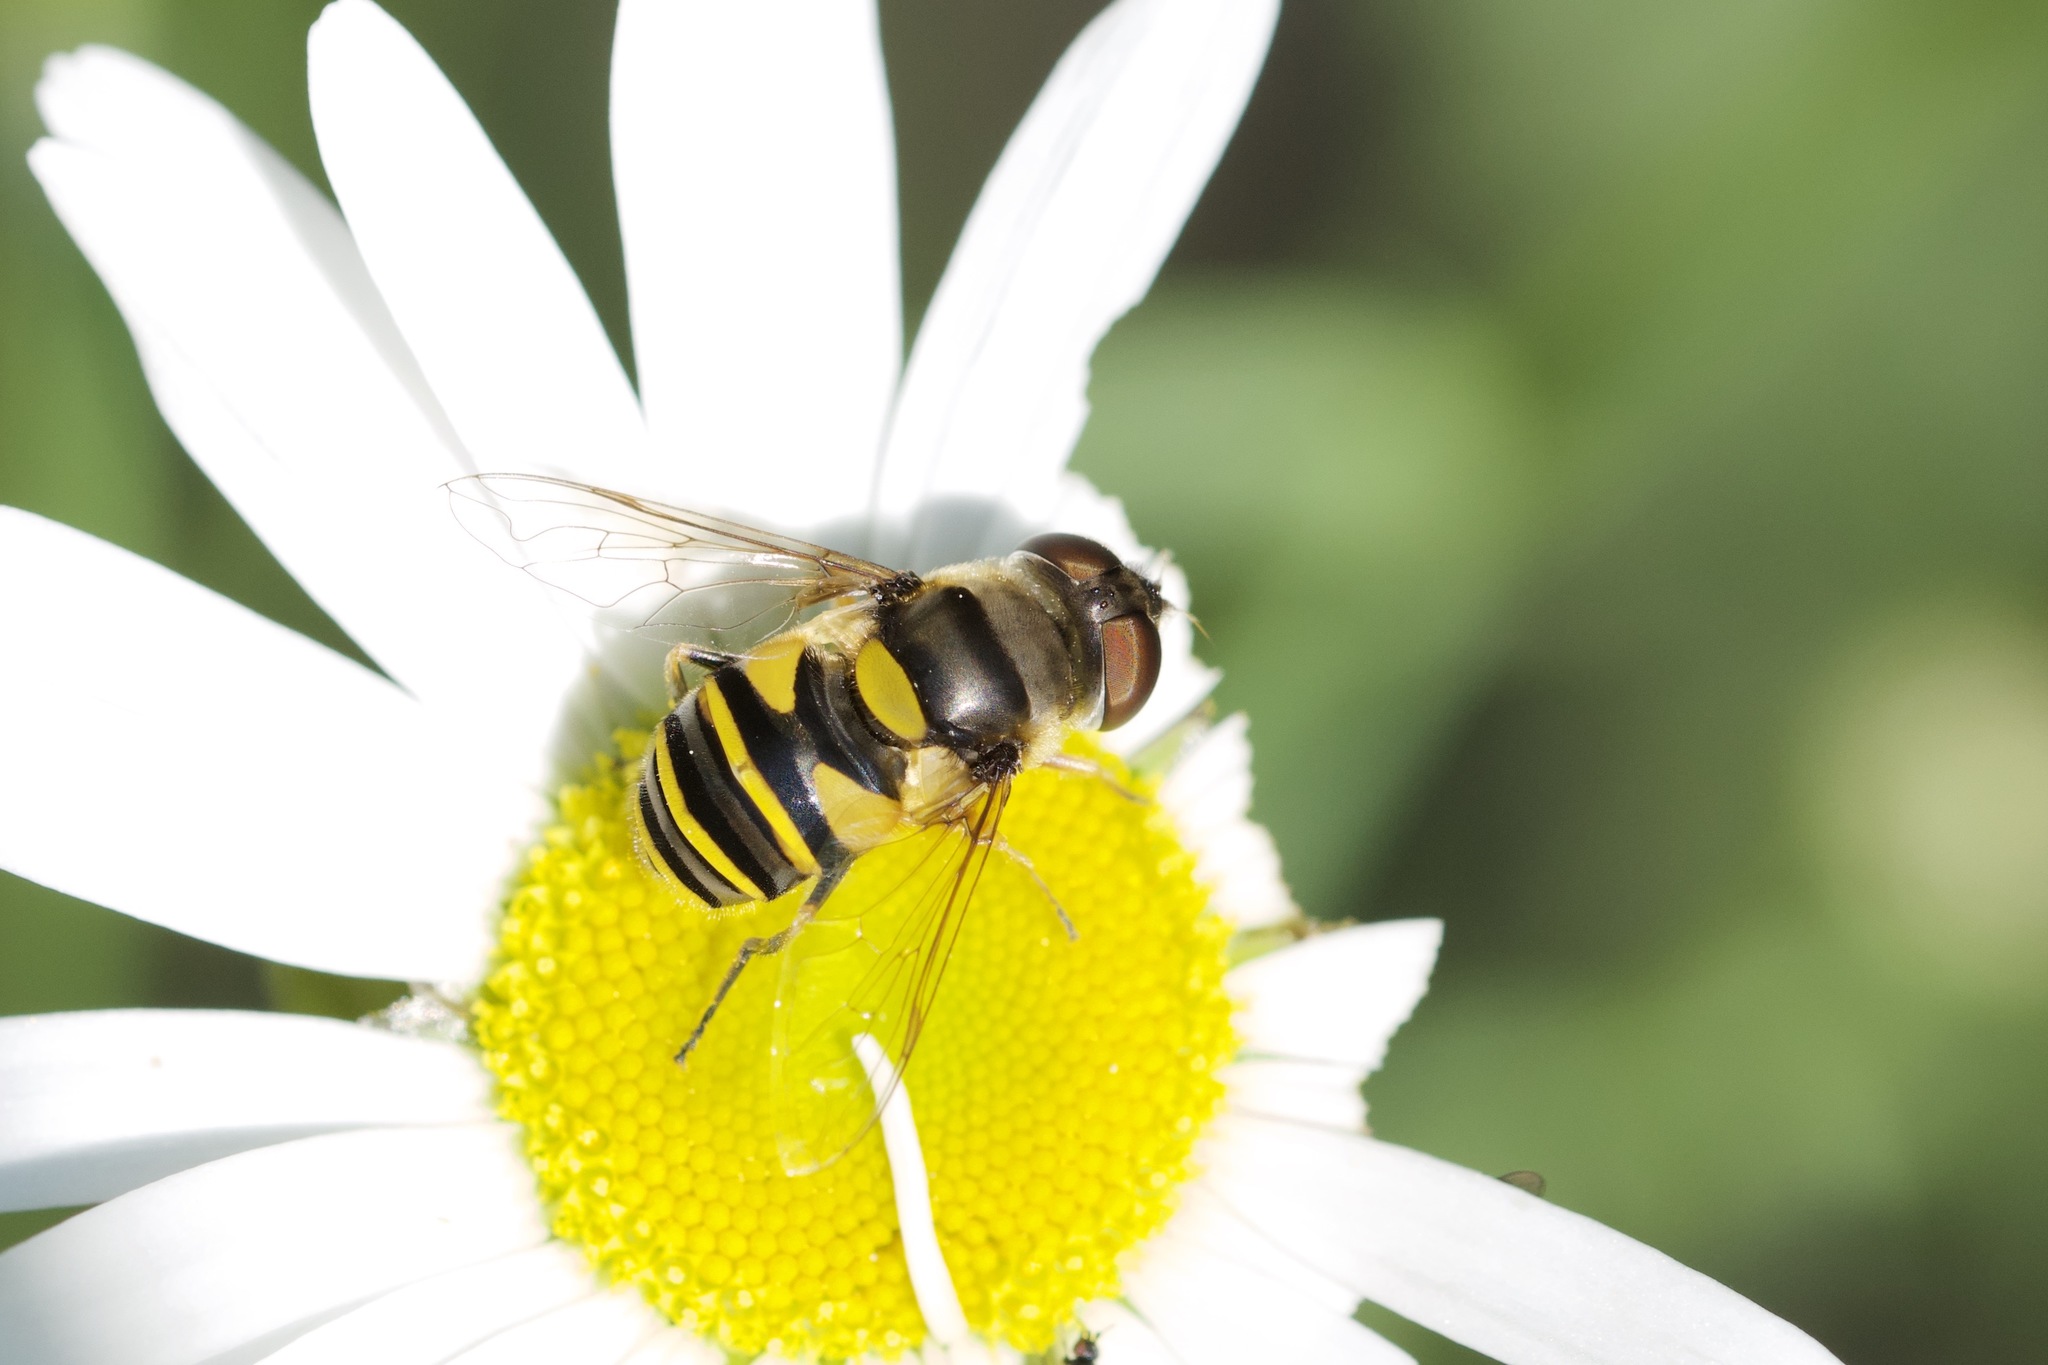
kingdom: Animalia
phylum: Arthropoda
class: Insecta
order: Diptera
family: Syrphidae
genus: Eristalis
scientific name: Eristalis transversa
